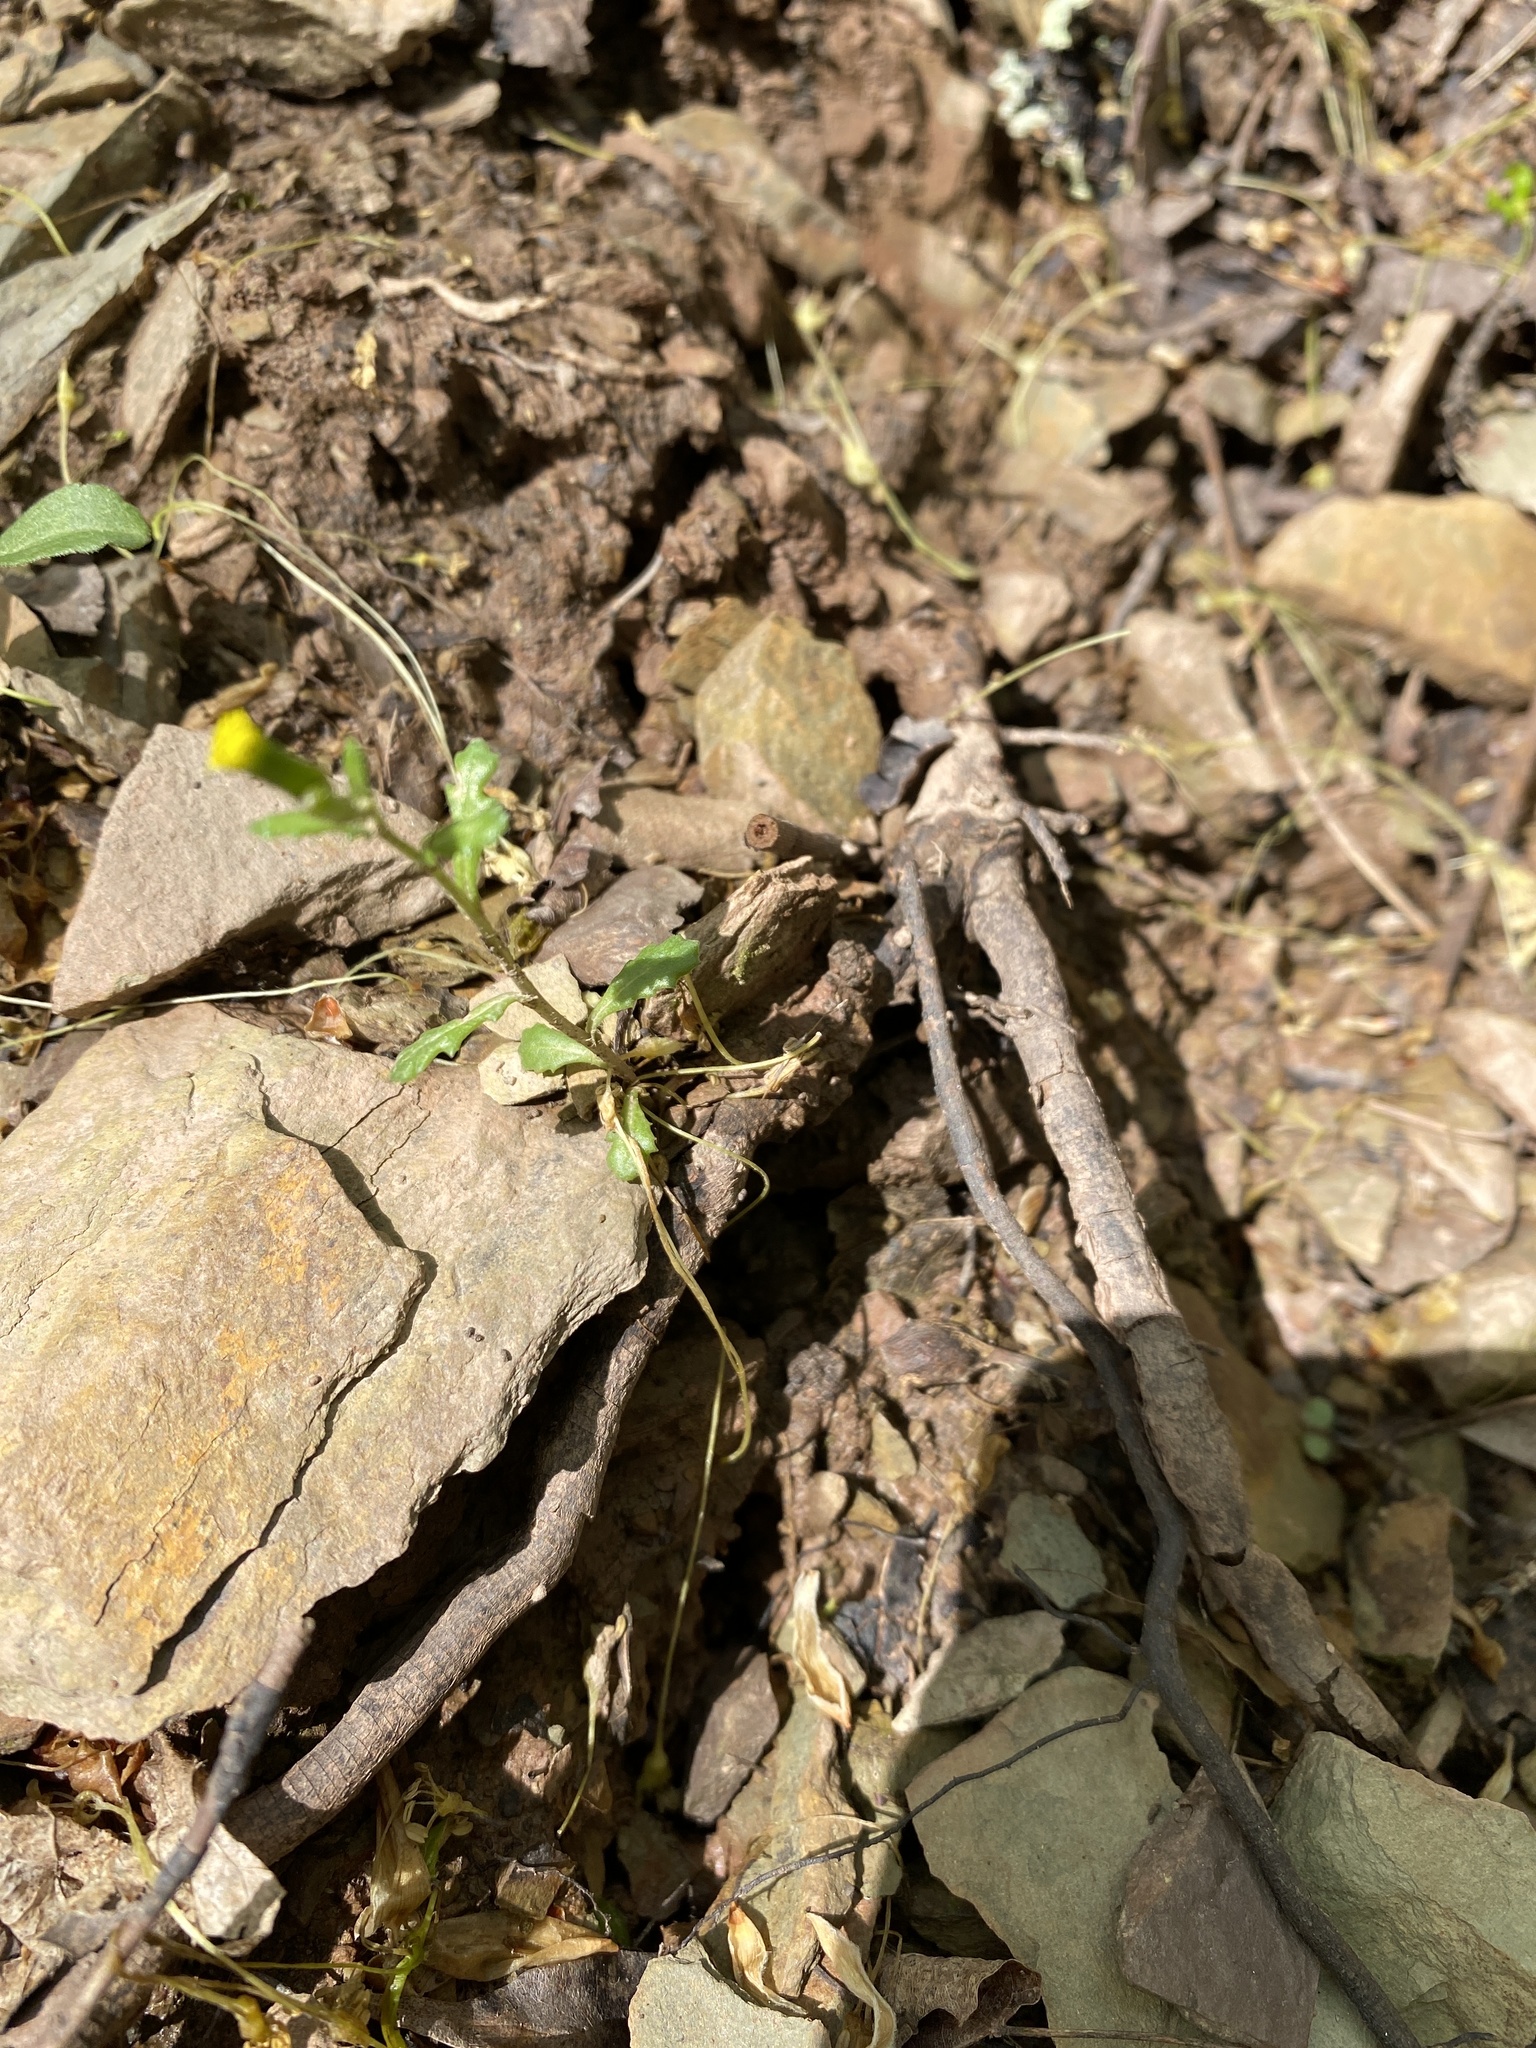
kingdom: Plantae
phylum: Tracheophyta
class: Magnoliopsida
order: Asterales
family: Asteraceae
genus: Senecio
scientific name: Senecio vulgaris
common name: Old-man-in-the-spring
